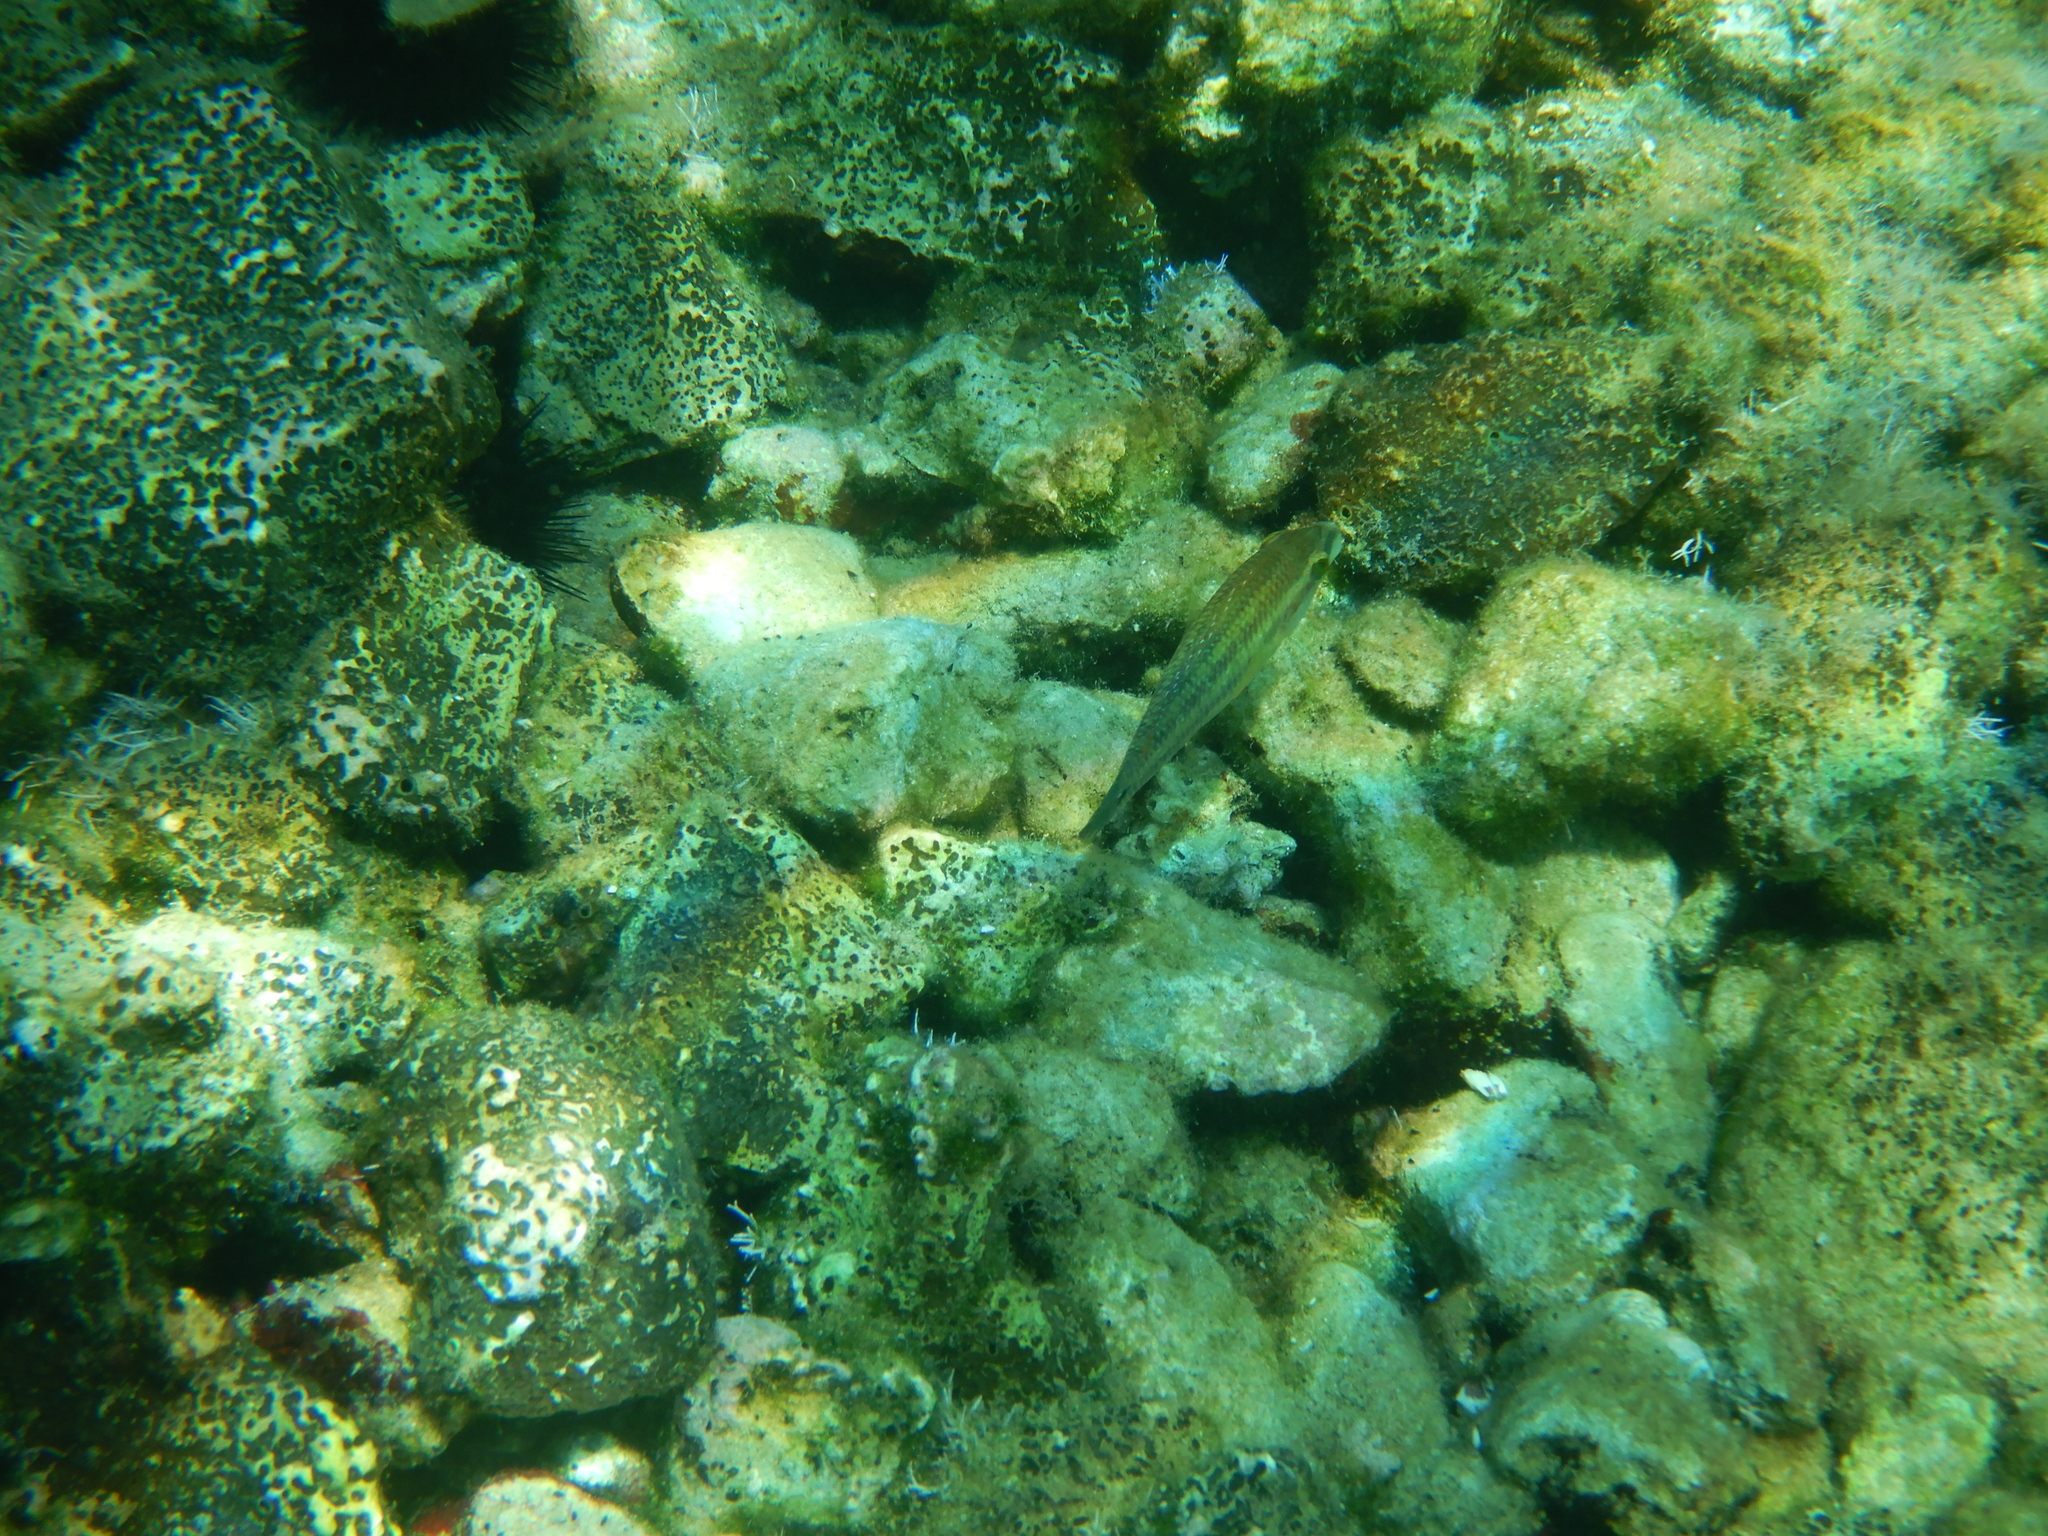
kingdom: Animalia
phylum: Chordata
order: Perciformes
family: Labridae
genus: Symphodus
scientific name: Symphodus tinca
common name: Peacock wrasse
